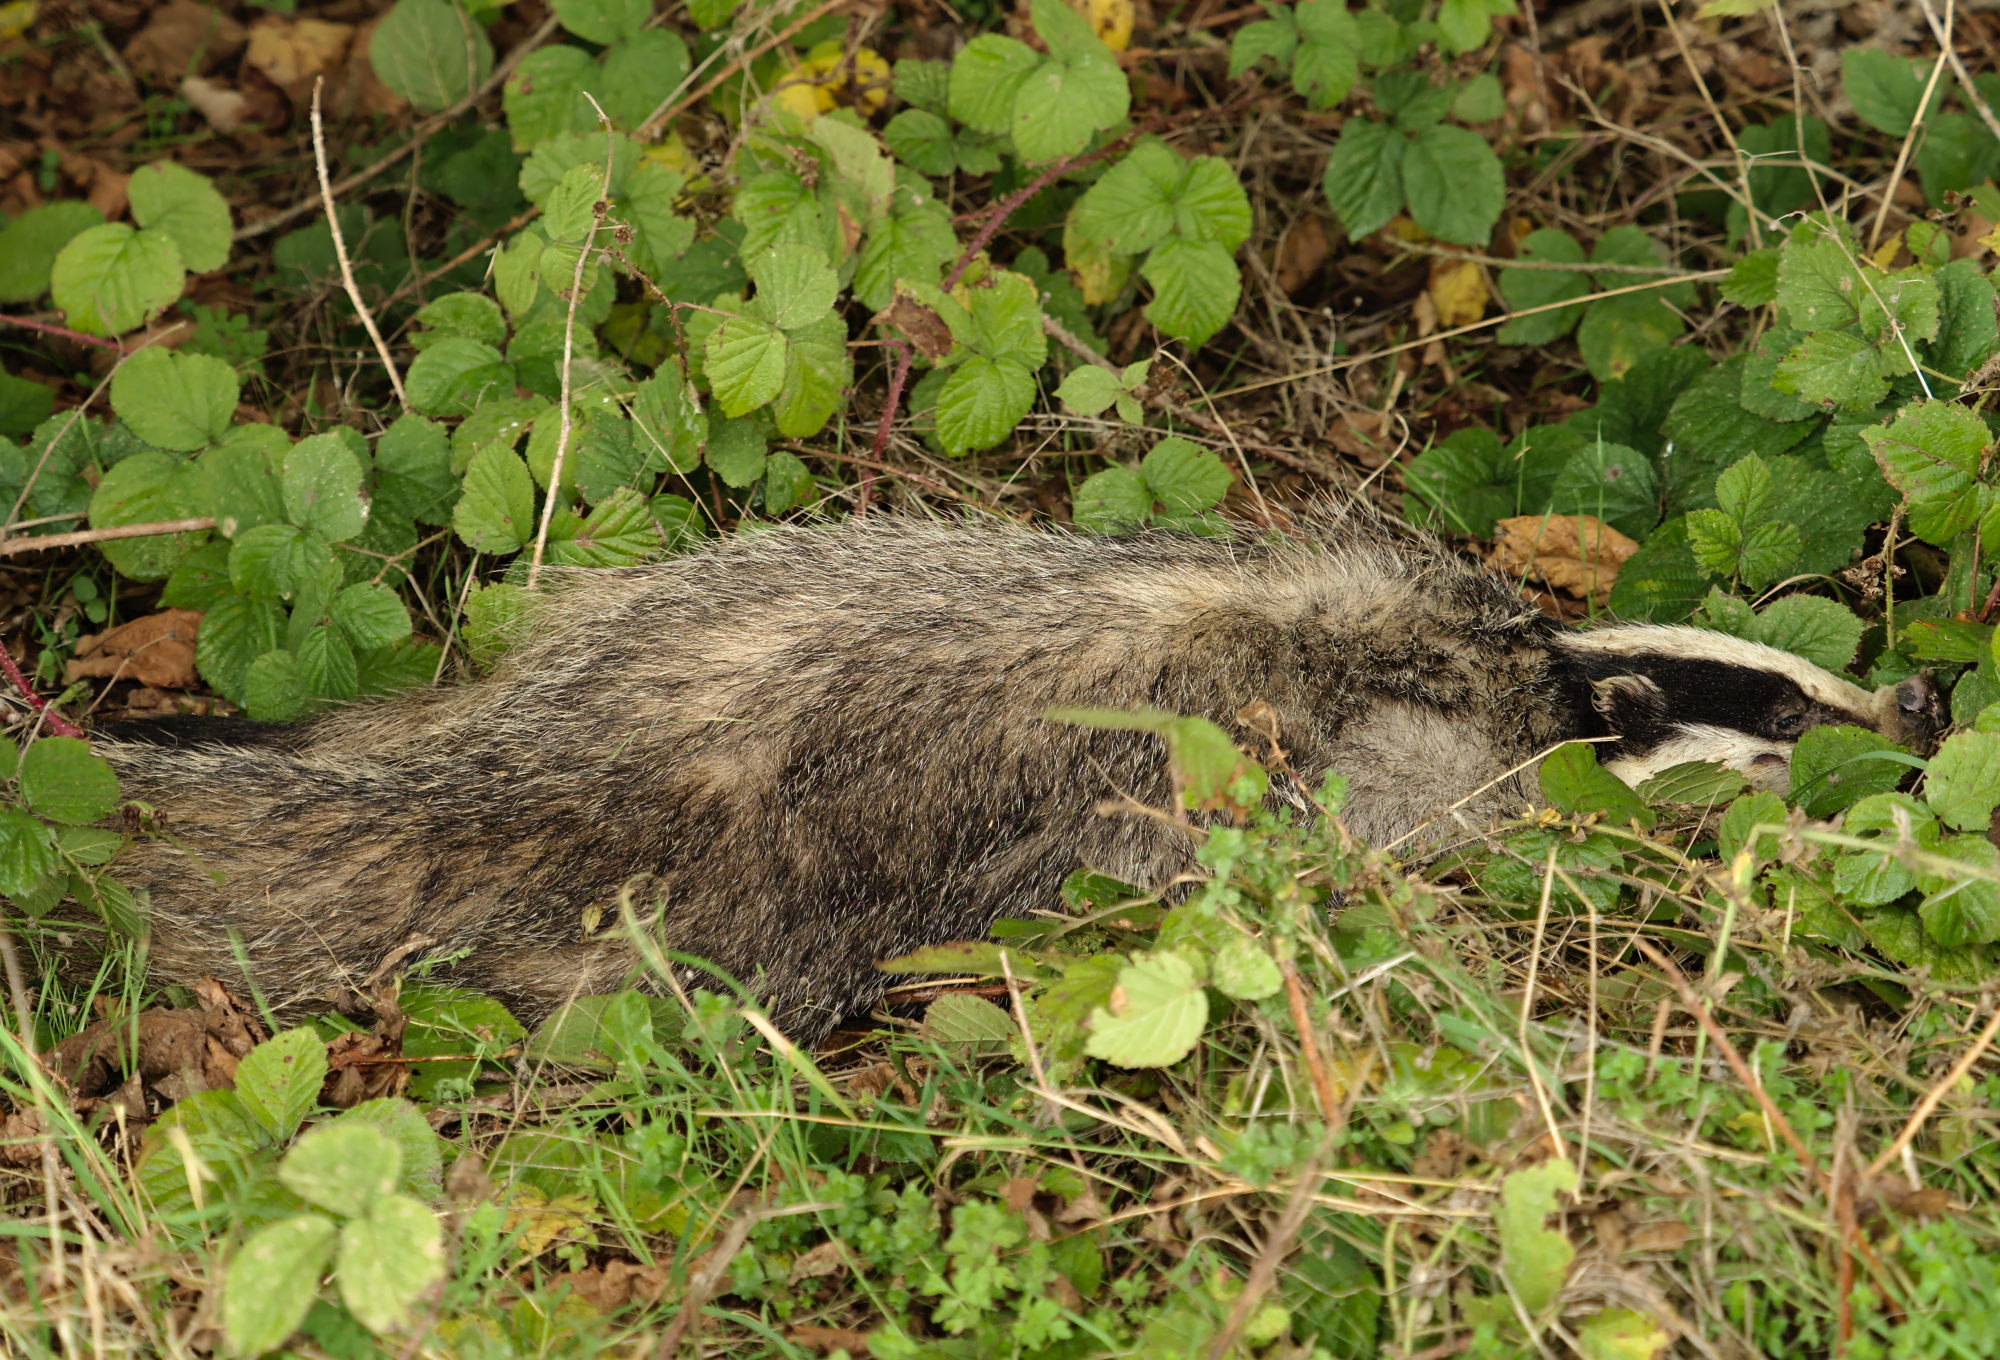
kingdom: Animalia
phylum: Chordata
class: Mammalia
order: Carnivora
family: Mustelidae
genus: Meles
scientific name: Meles meles
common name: Eurasian badger
